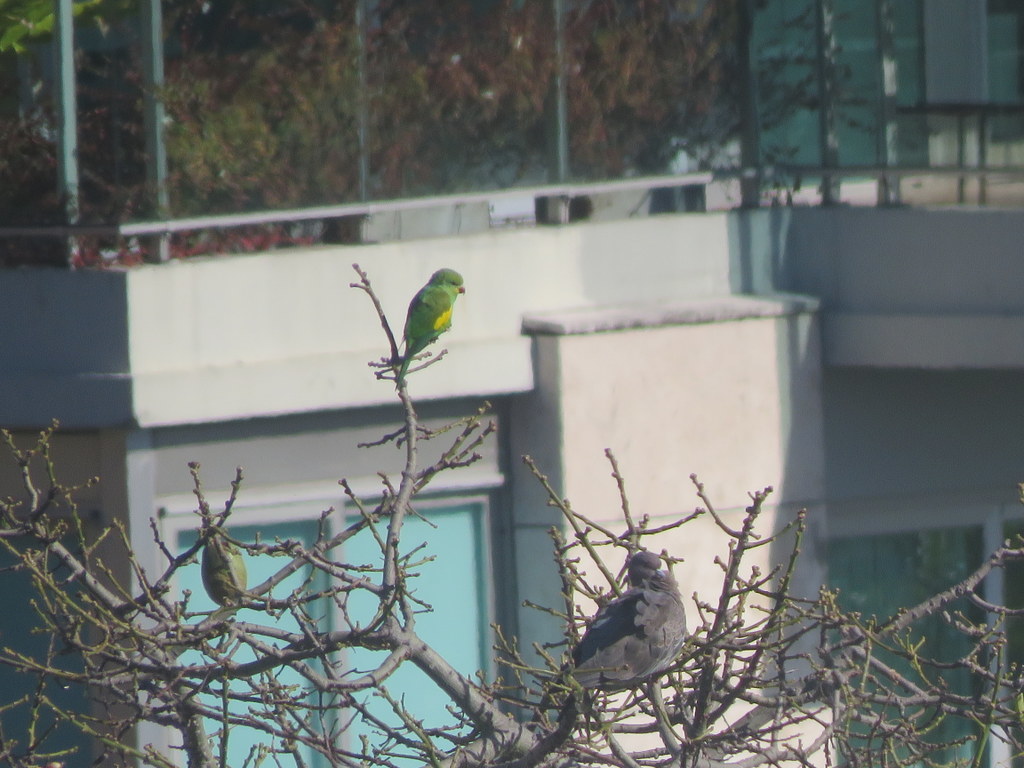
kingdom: Animalia
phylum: Chordata
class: Aves
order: Psittaciformes
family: Psittacidae
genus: Brotogeris
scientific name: Brotogeris chiriri
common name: Yellow-chevroned parakeet
